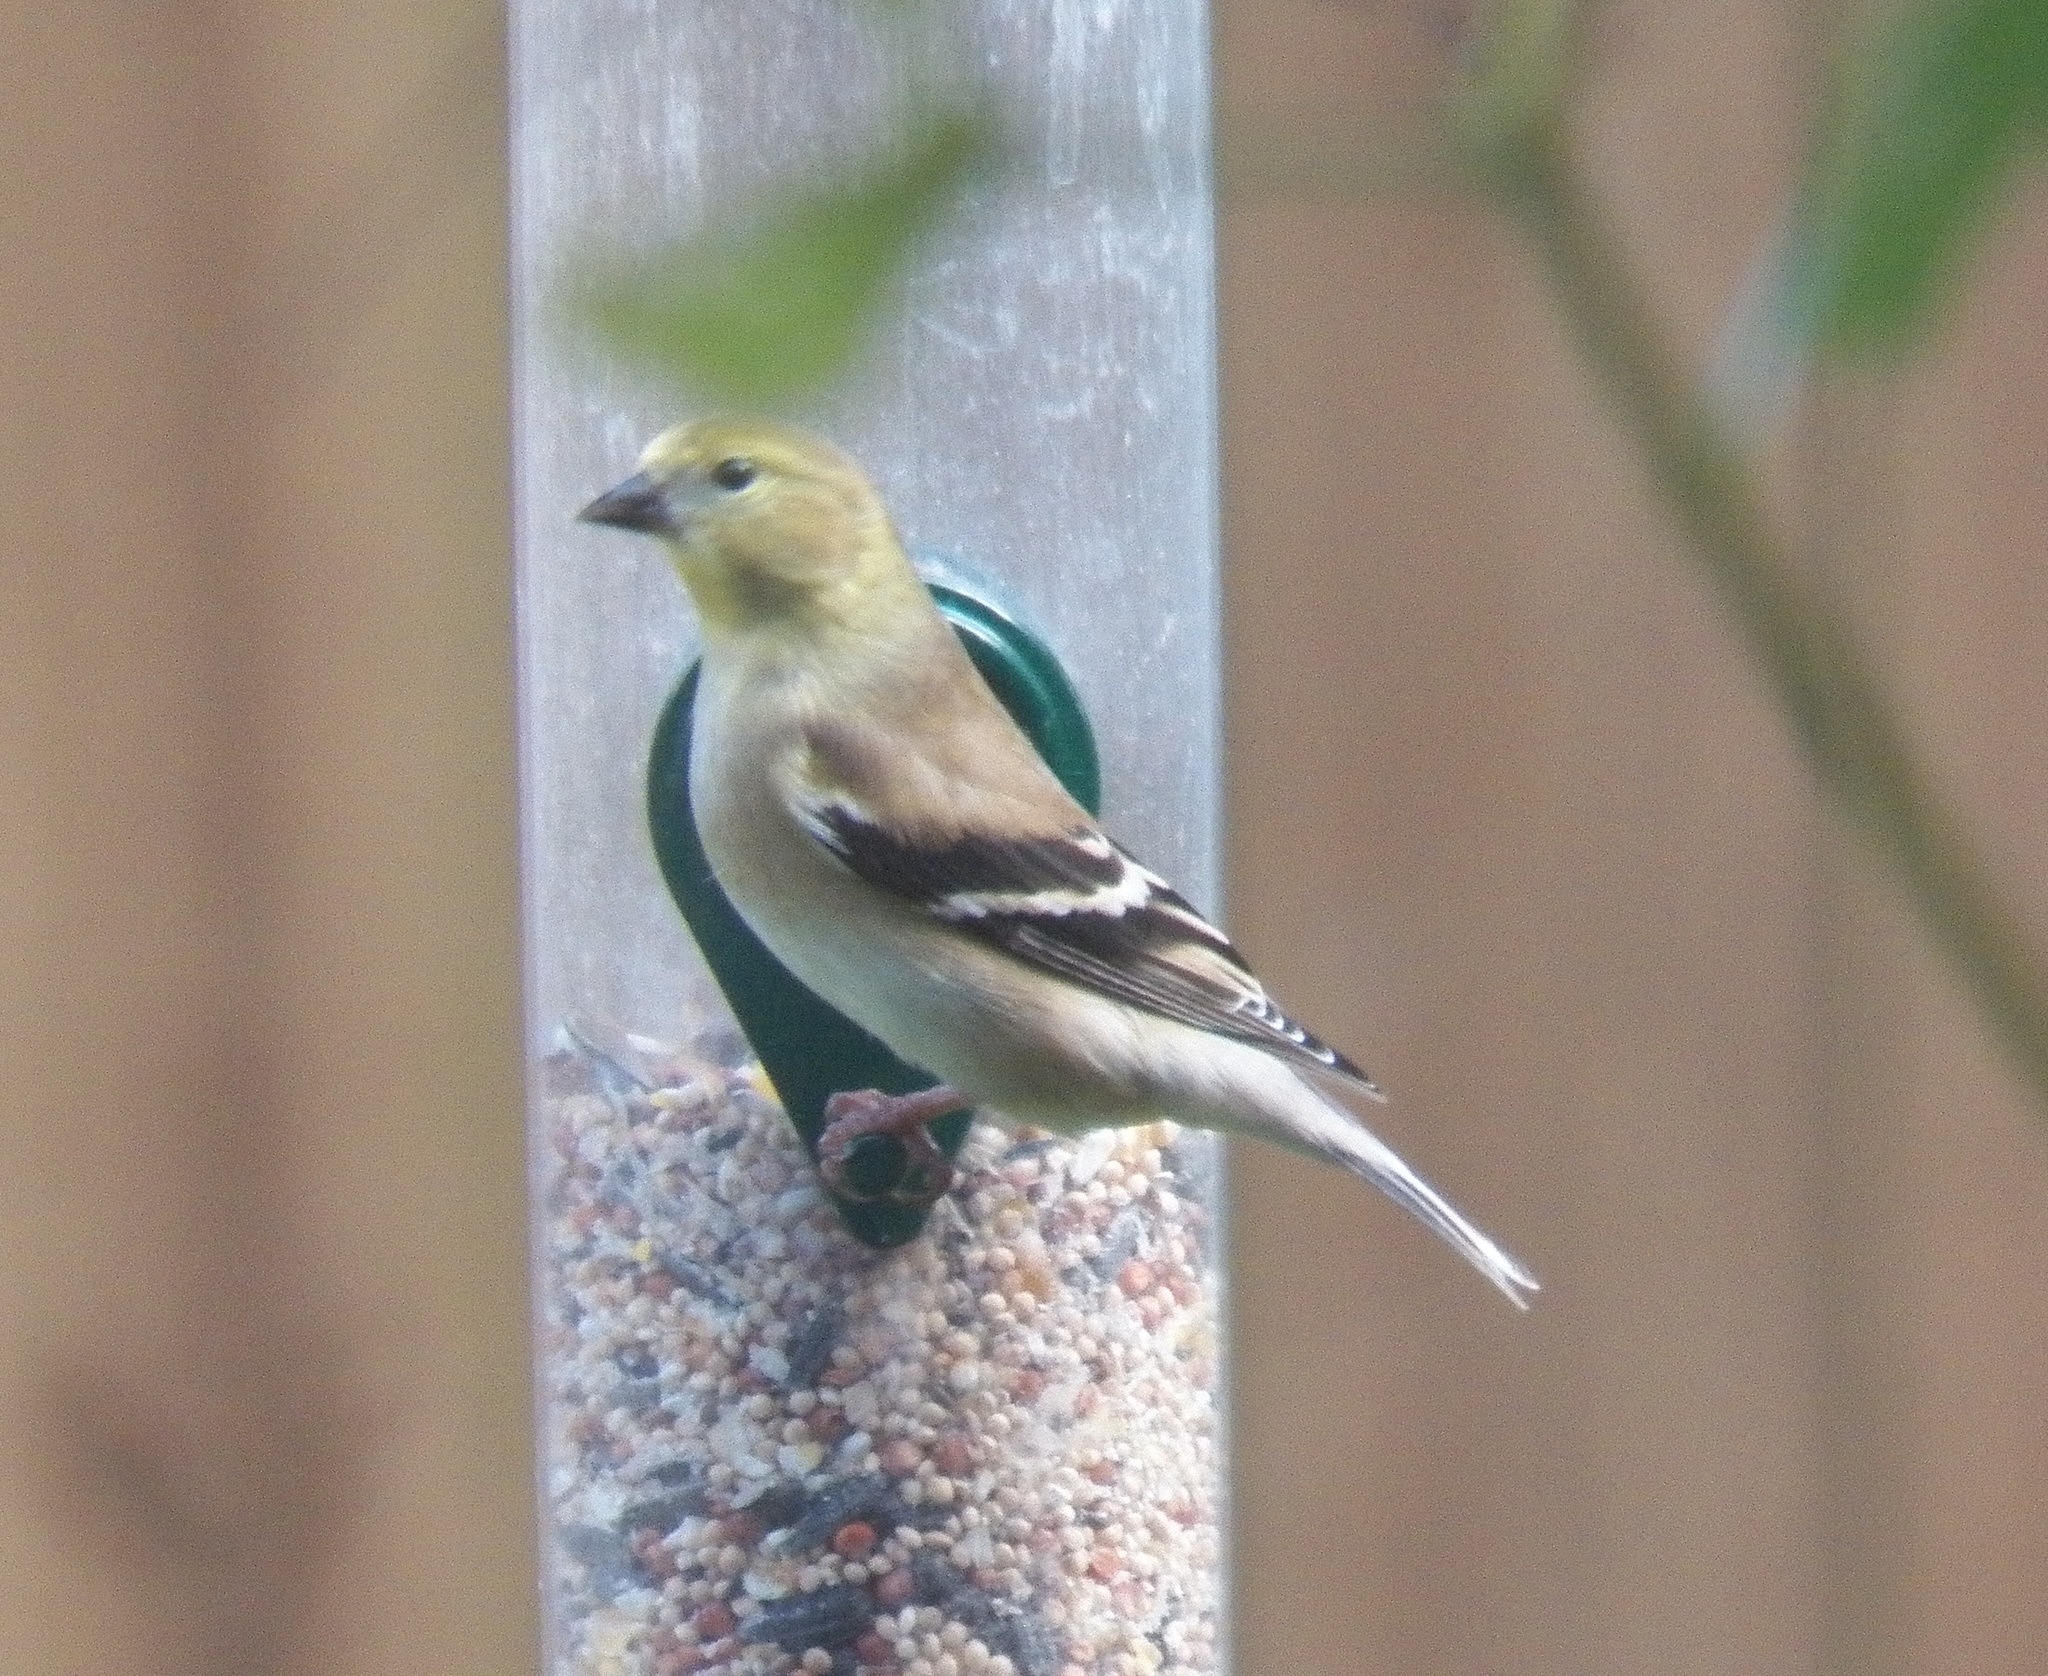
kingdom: Animalia
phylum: Chordata
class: Aves
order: Passeriformes
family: Fringillidae
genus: Spinus
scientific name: Spinus tristis
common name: American goldfinch
